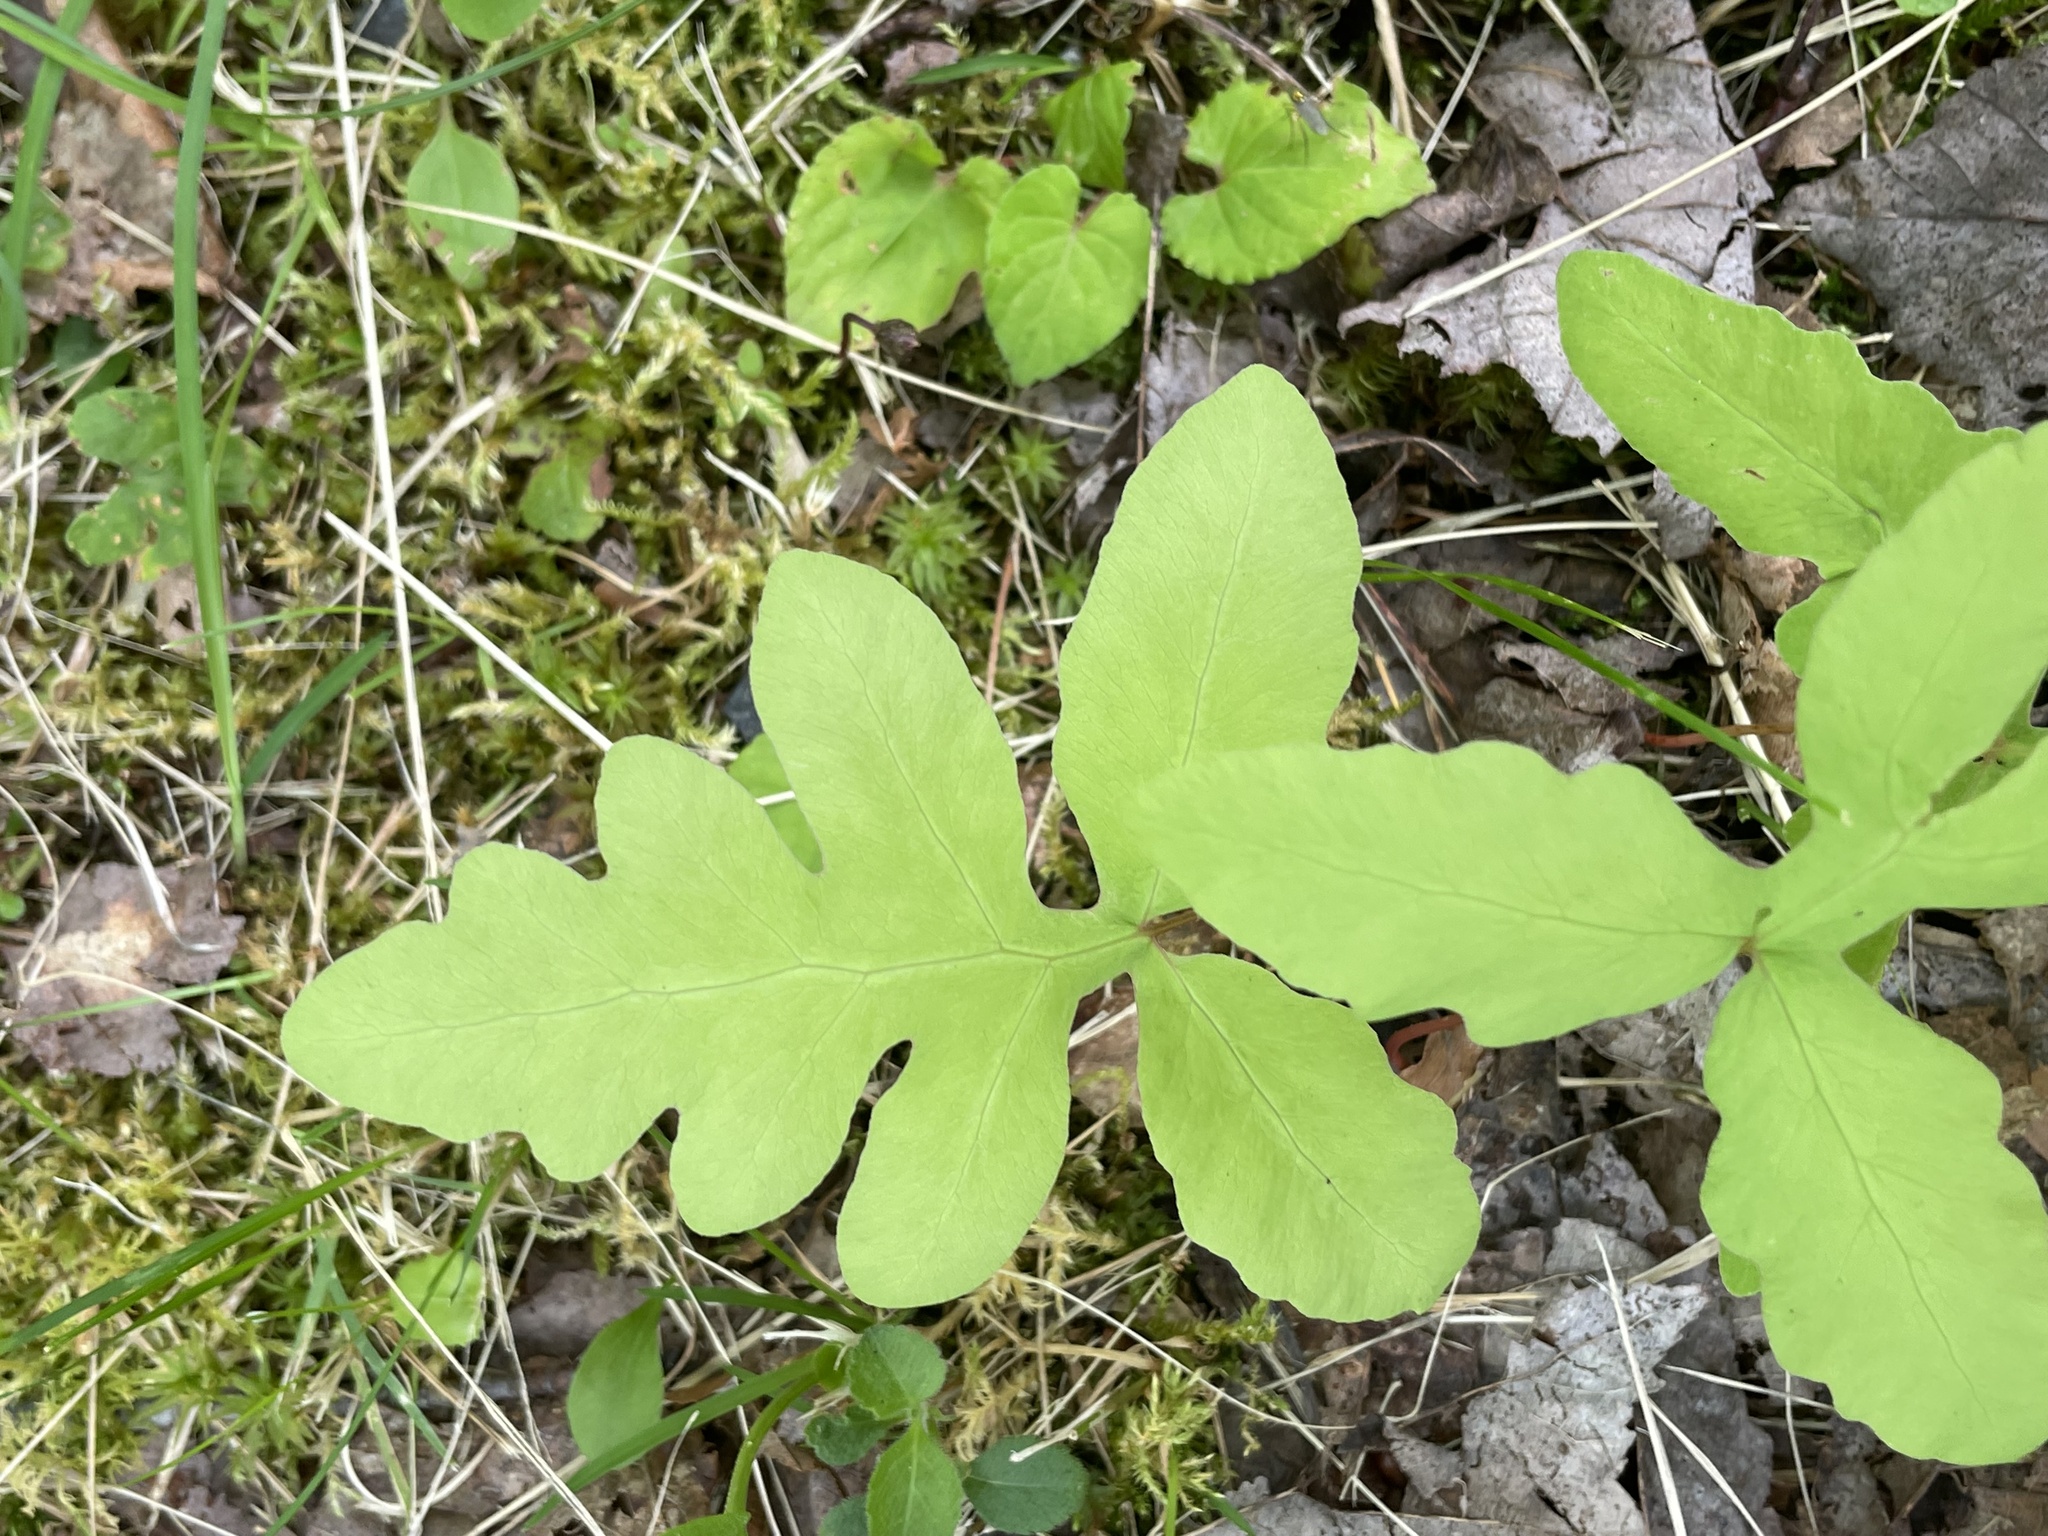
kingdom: Plantae
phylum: Tracheophyta
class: Polypodiopsida
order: Polypodiales
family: Onocleaceae
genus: Onoclea
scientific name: Onoclea sensibilis
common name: Sensitive fern
